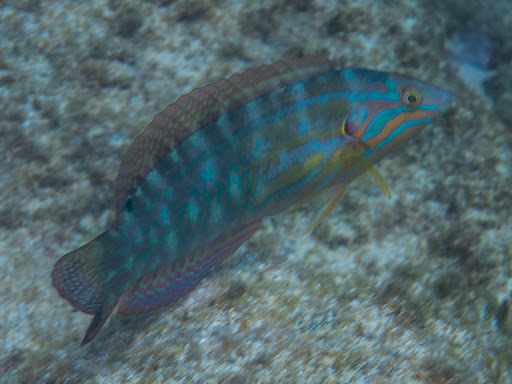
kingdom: Animalia
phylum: Chordata
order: Perciformes
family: Labridae
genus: Coris
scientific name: Coris venusta
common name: Elegant coris
